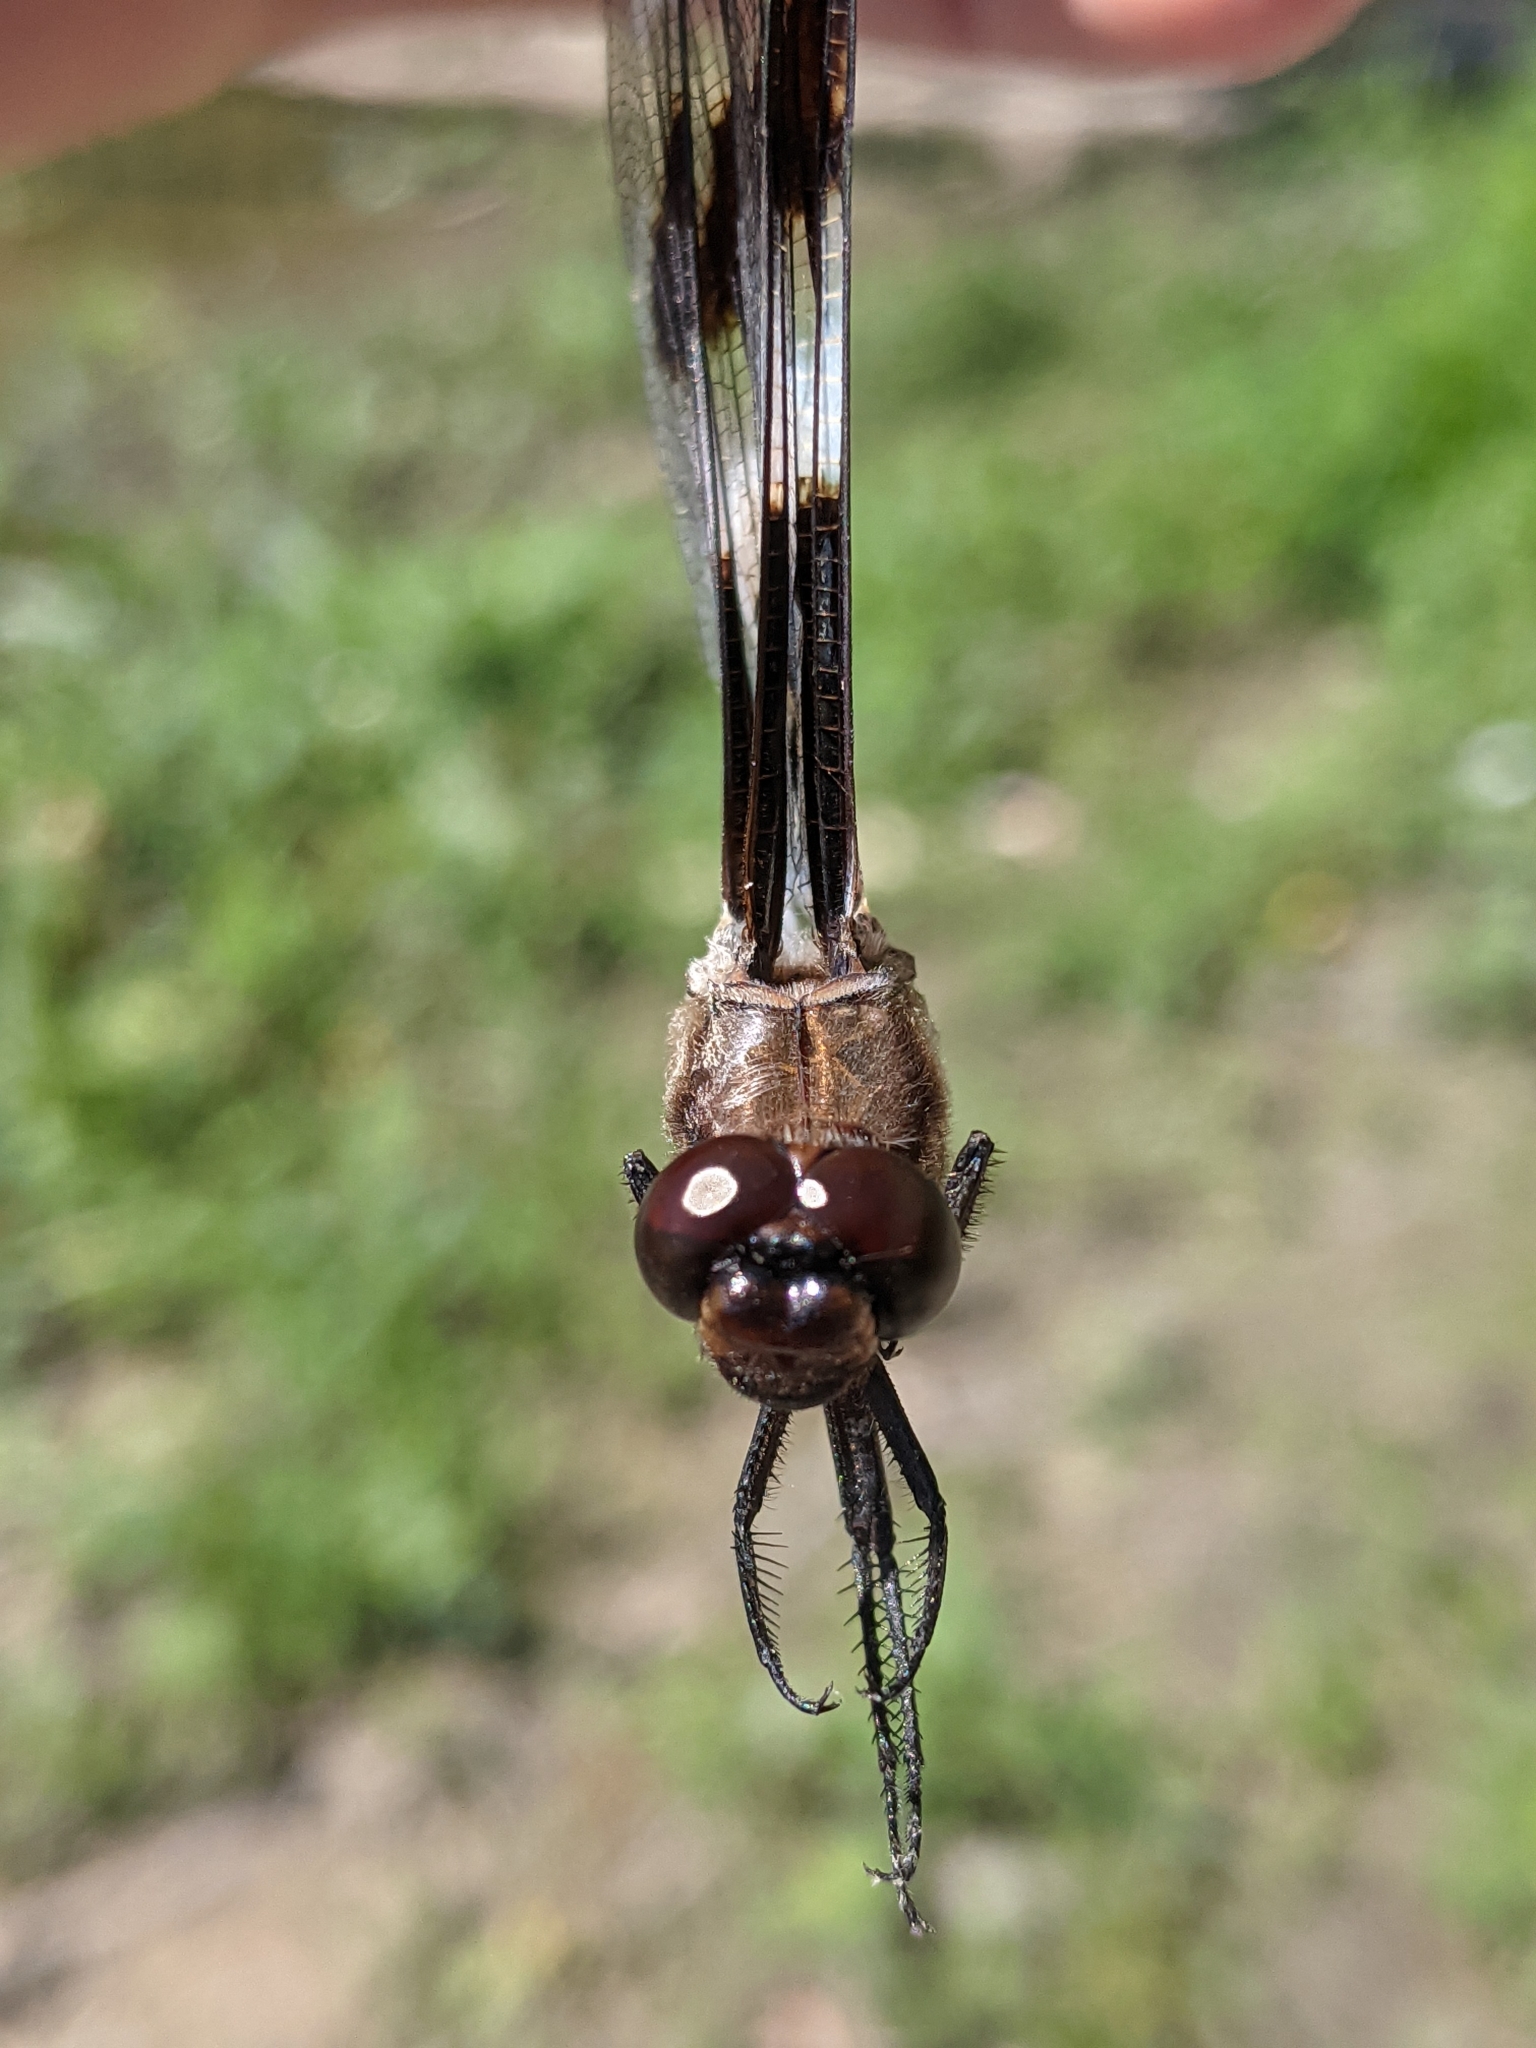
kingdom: Animalia
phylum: Arthropoda
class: Insecta
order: Odonata
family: Libellulidae
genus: Libellula
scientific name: Libellula pulchella
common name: Twelve-spotted skimmer
